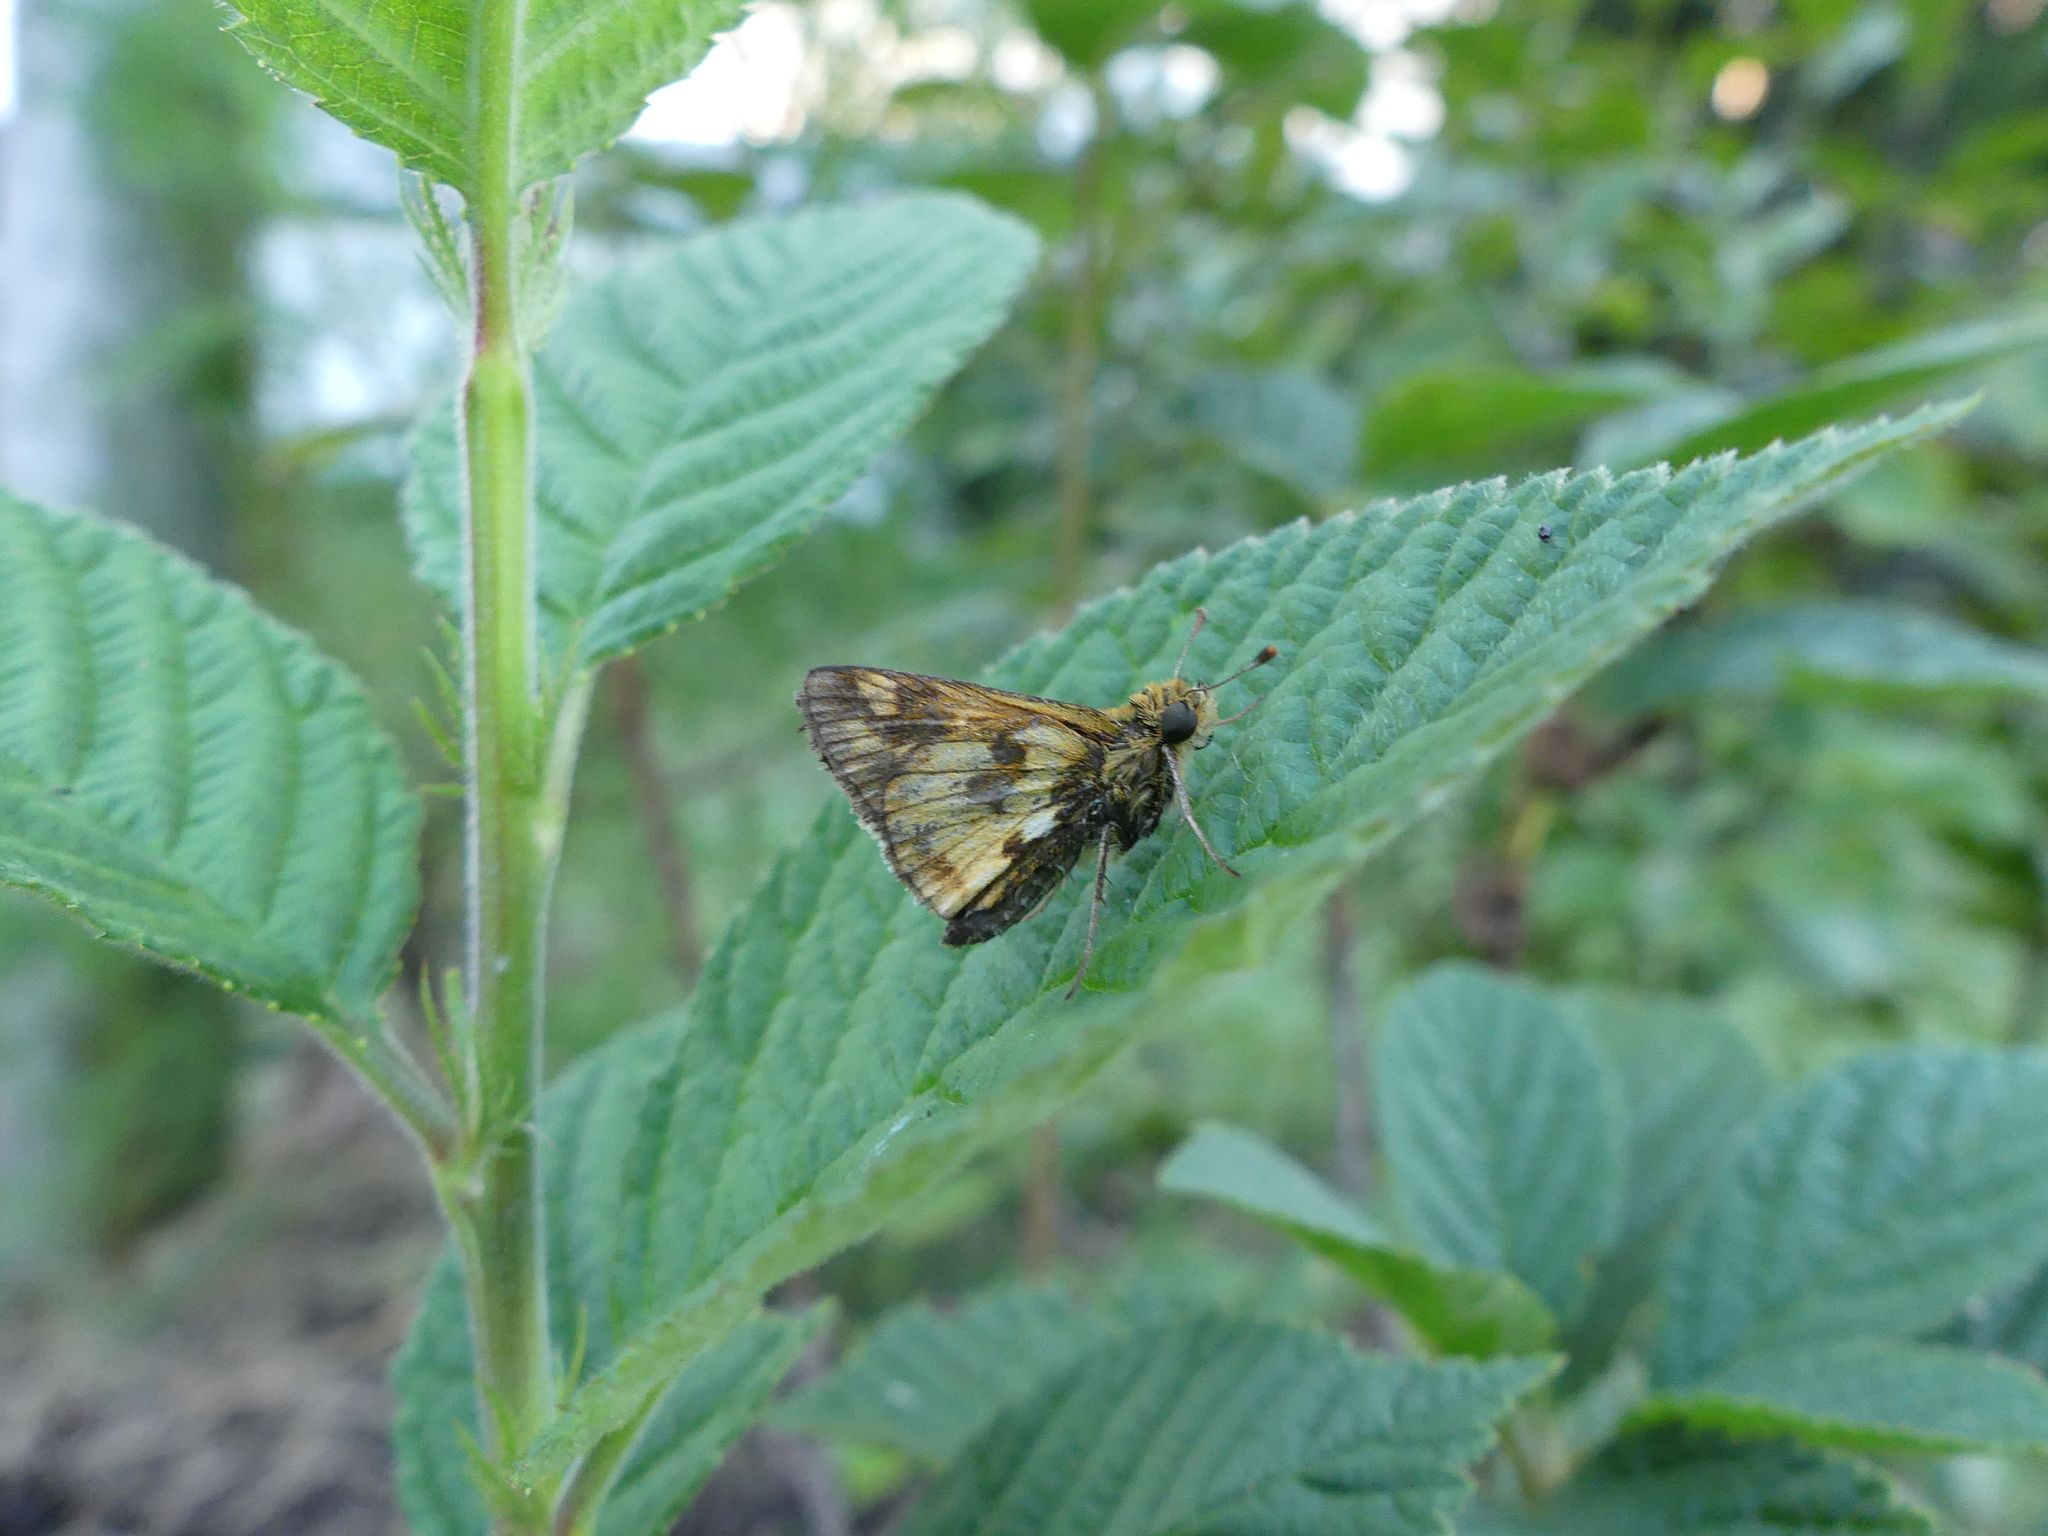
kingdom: Animalia
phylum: Arthropoda
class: Insecta
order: Lepidoptera
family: Hesperiidae
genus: Polites
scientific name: Polites coras
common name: Peck's skipper
